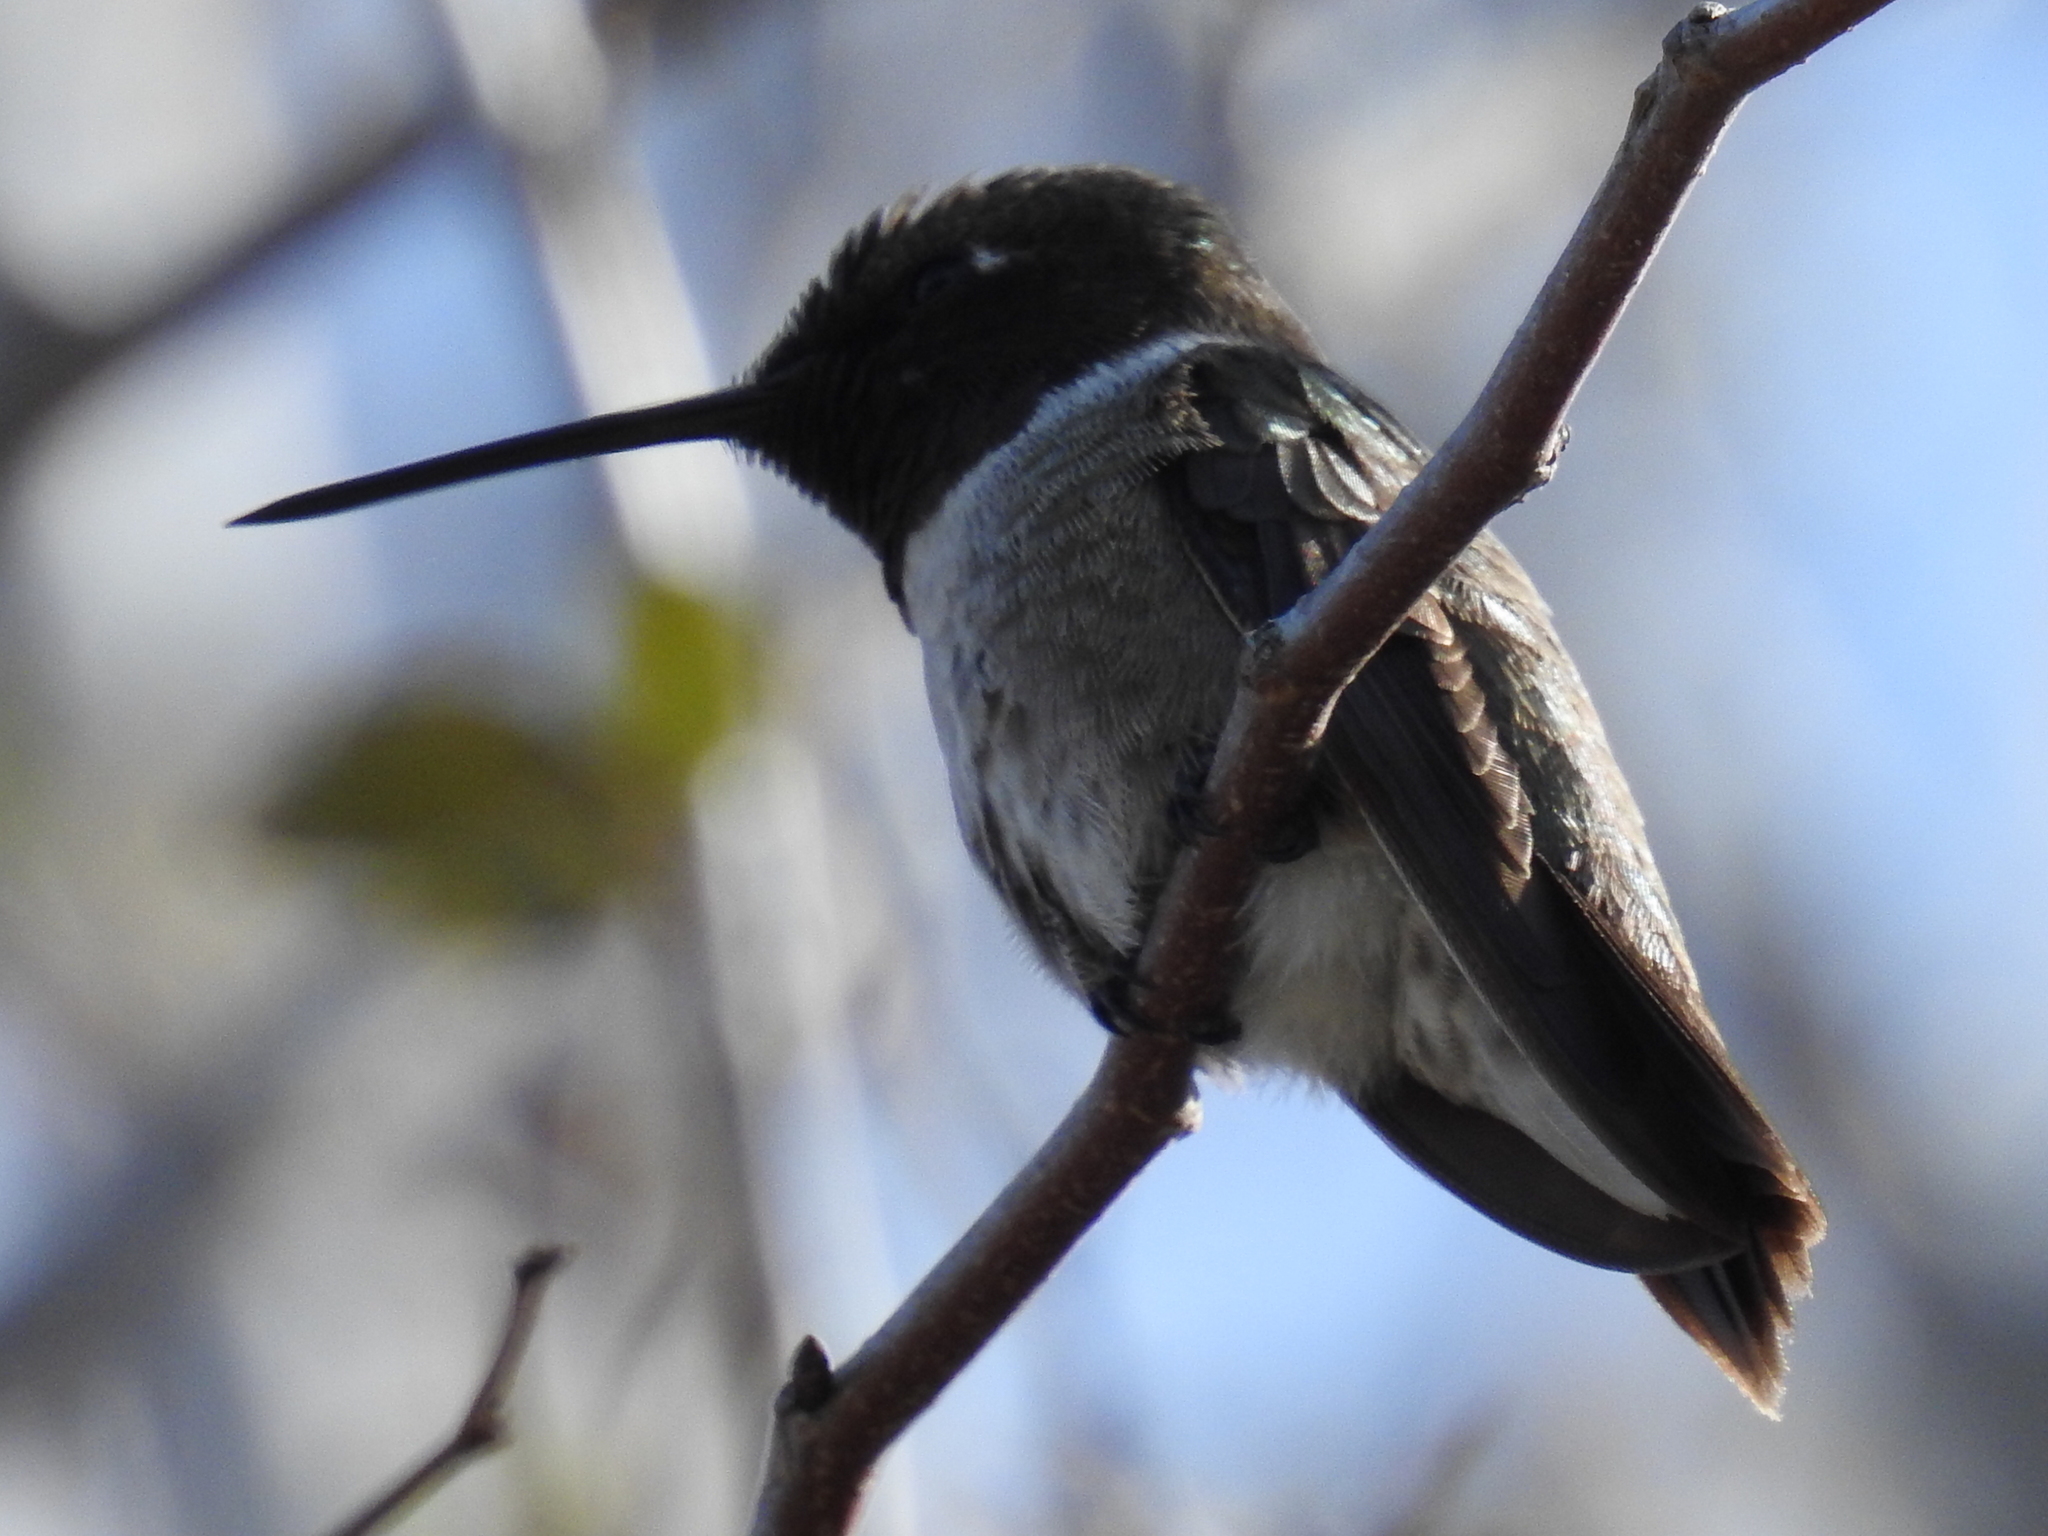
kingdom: Animalia
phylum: Chordata
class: Aves
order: Apodiformes
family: Trochilidae
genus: Archilochus
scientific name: Archilochus alexandri
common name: Black-chinned hummingbird
